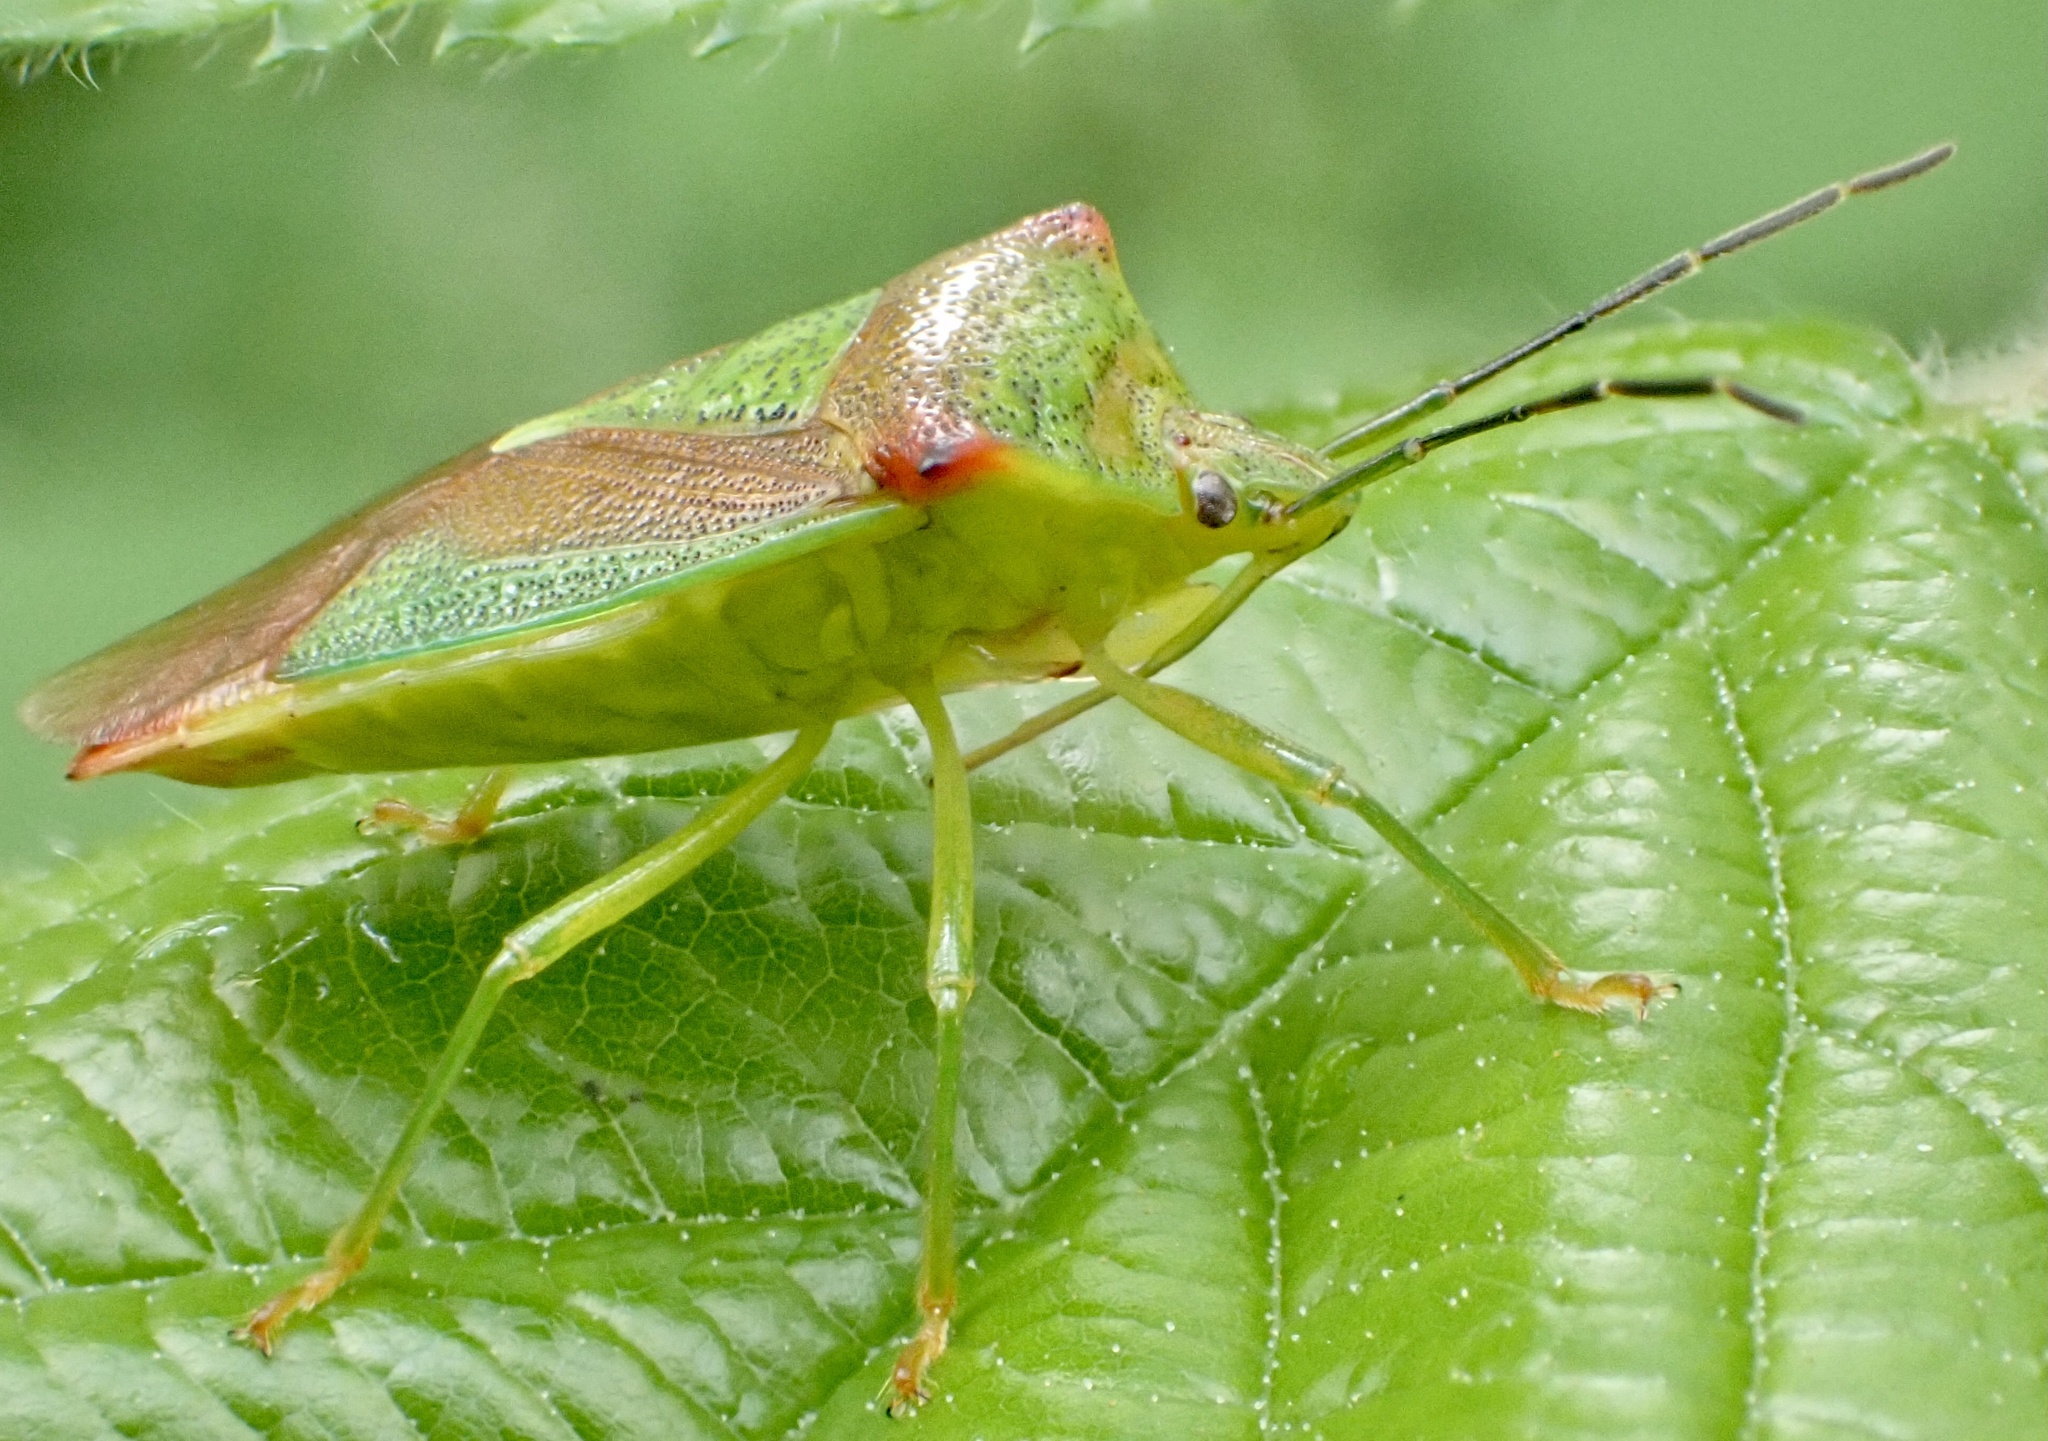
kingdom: Animalia
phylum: Arthropoda
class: Insecta
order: Hemiptera
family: Acanthosomatidae
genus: Acanthosoma
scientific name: Acanthosoma haemorrhoidale
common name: Hawthorn shieldbug
